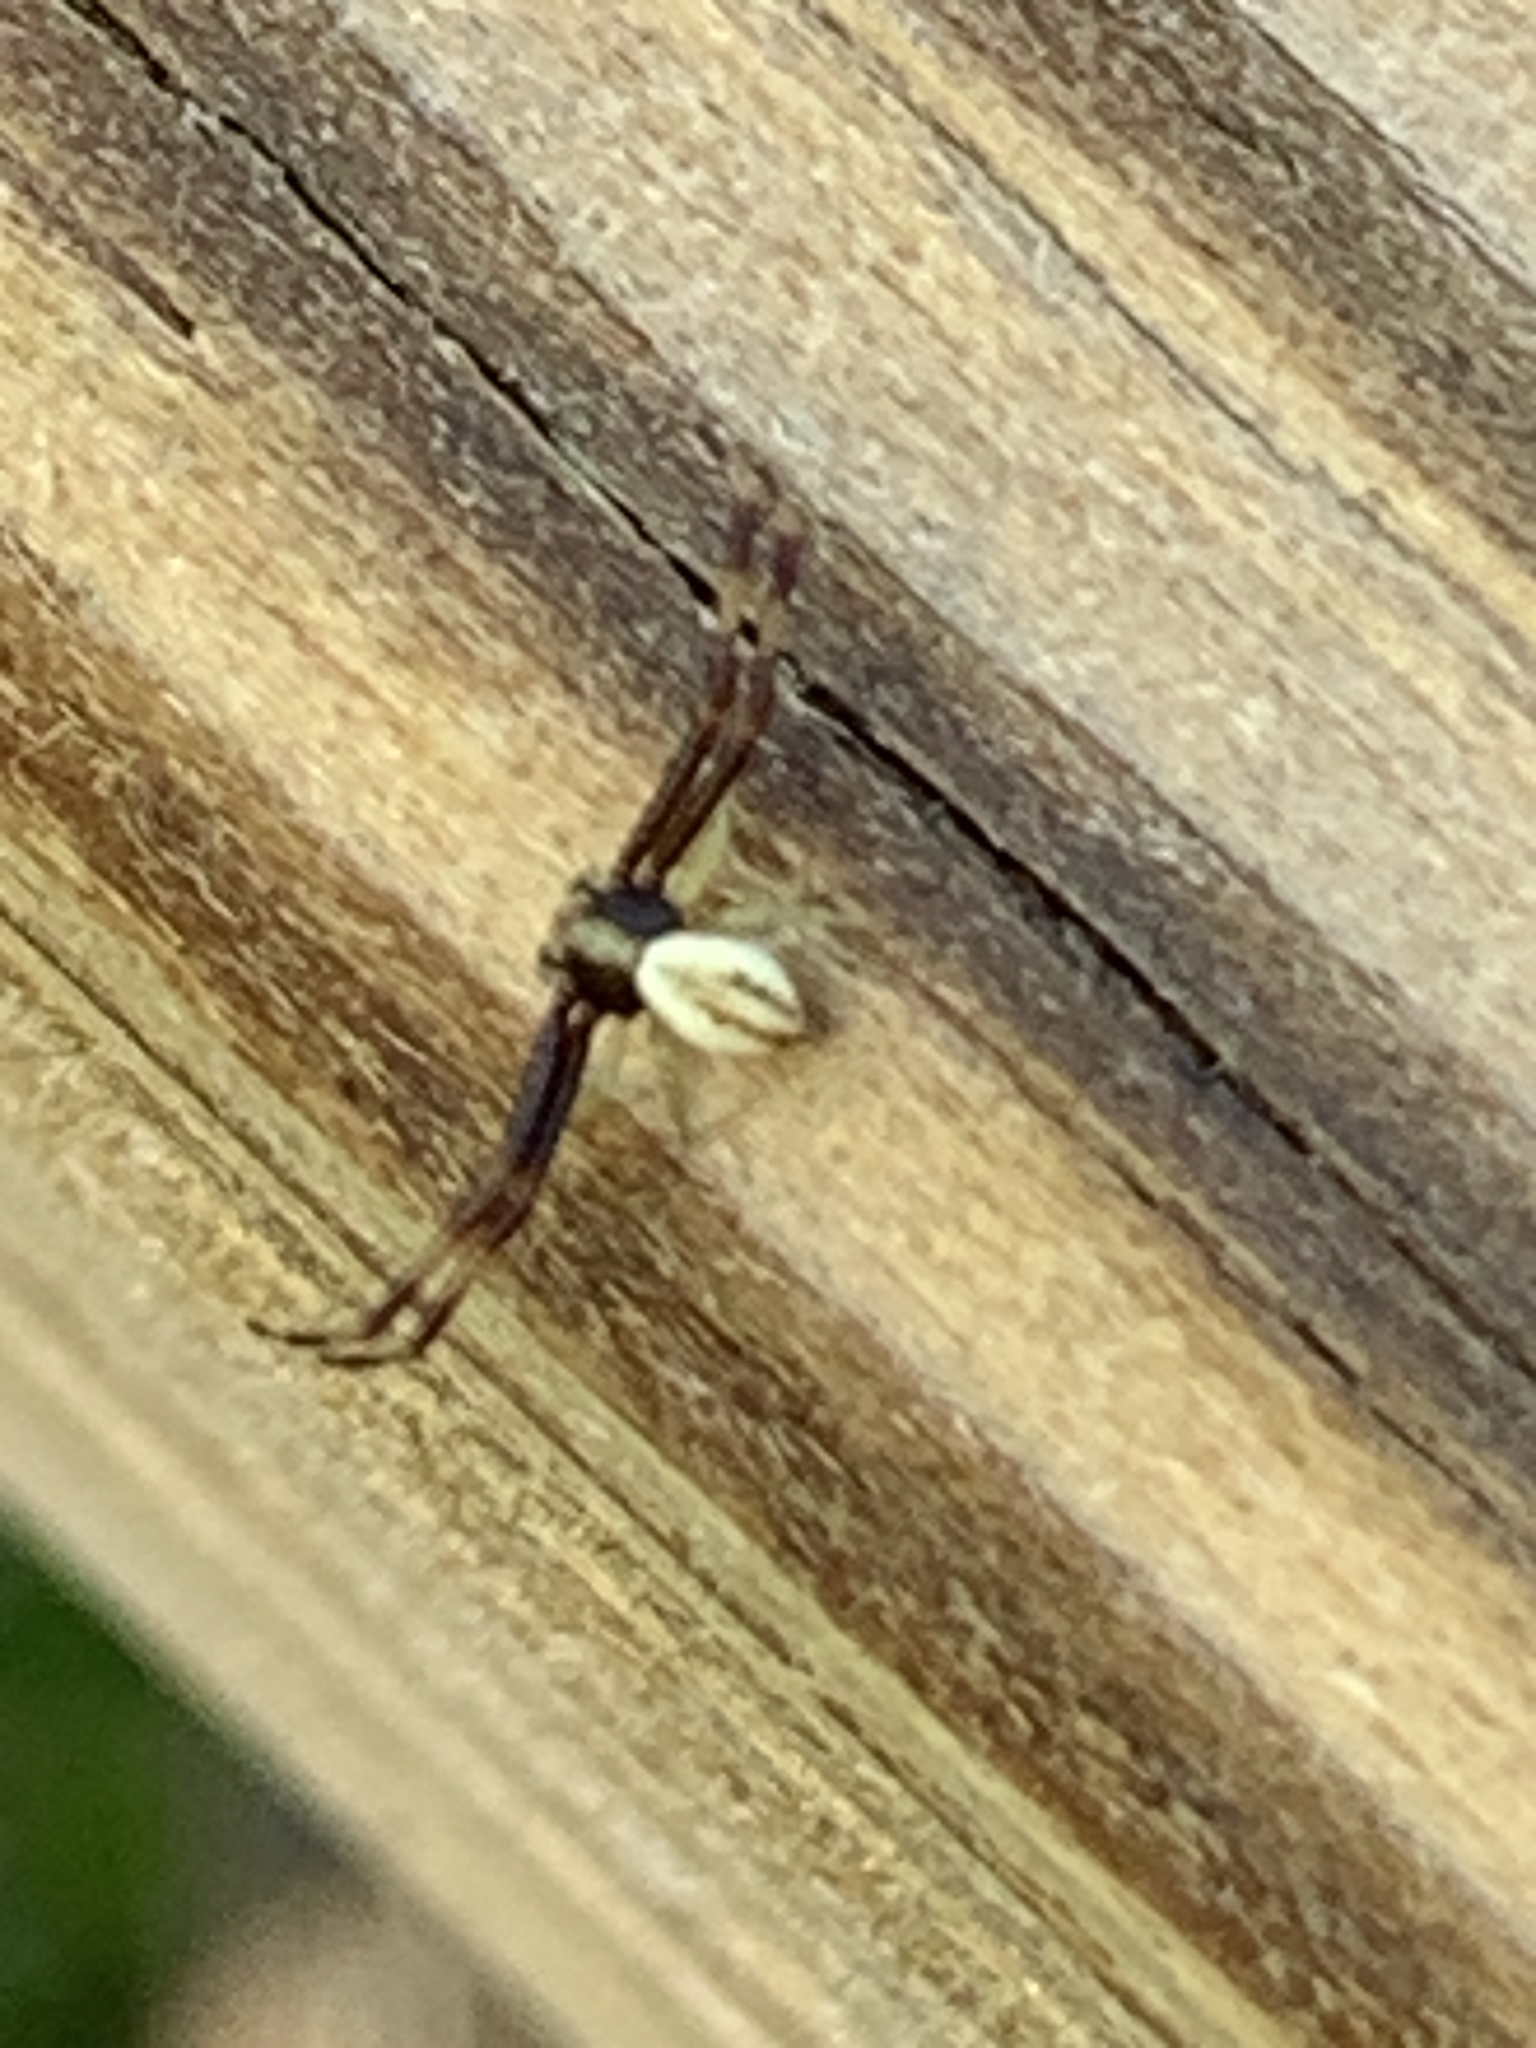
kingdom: Animalia
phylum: Arthropoda
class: Arachnida
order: Araneae
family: Thomisidae
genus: Misumena
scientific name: Misumena vatia
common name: Goldenrod crab spider
